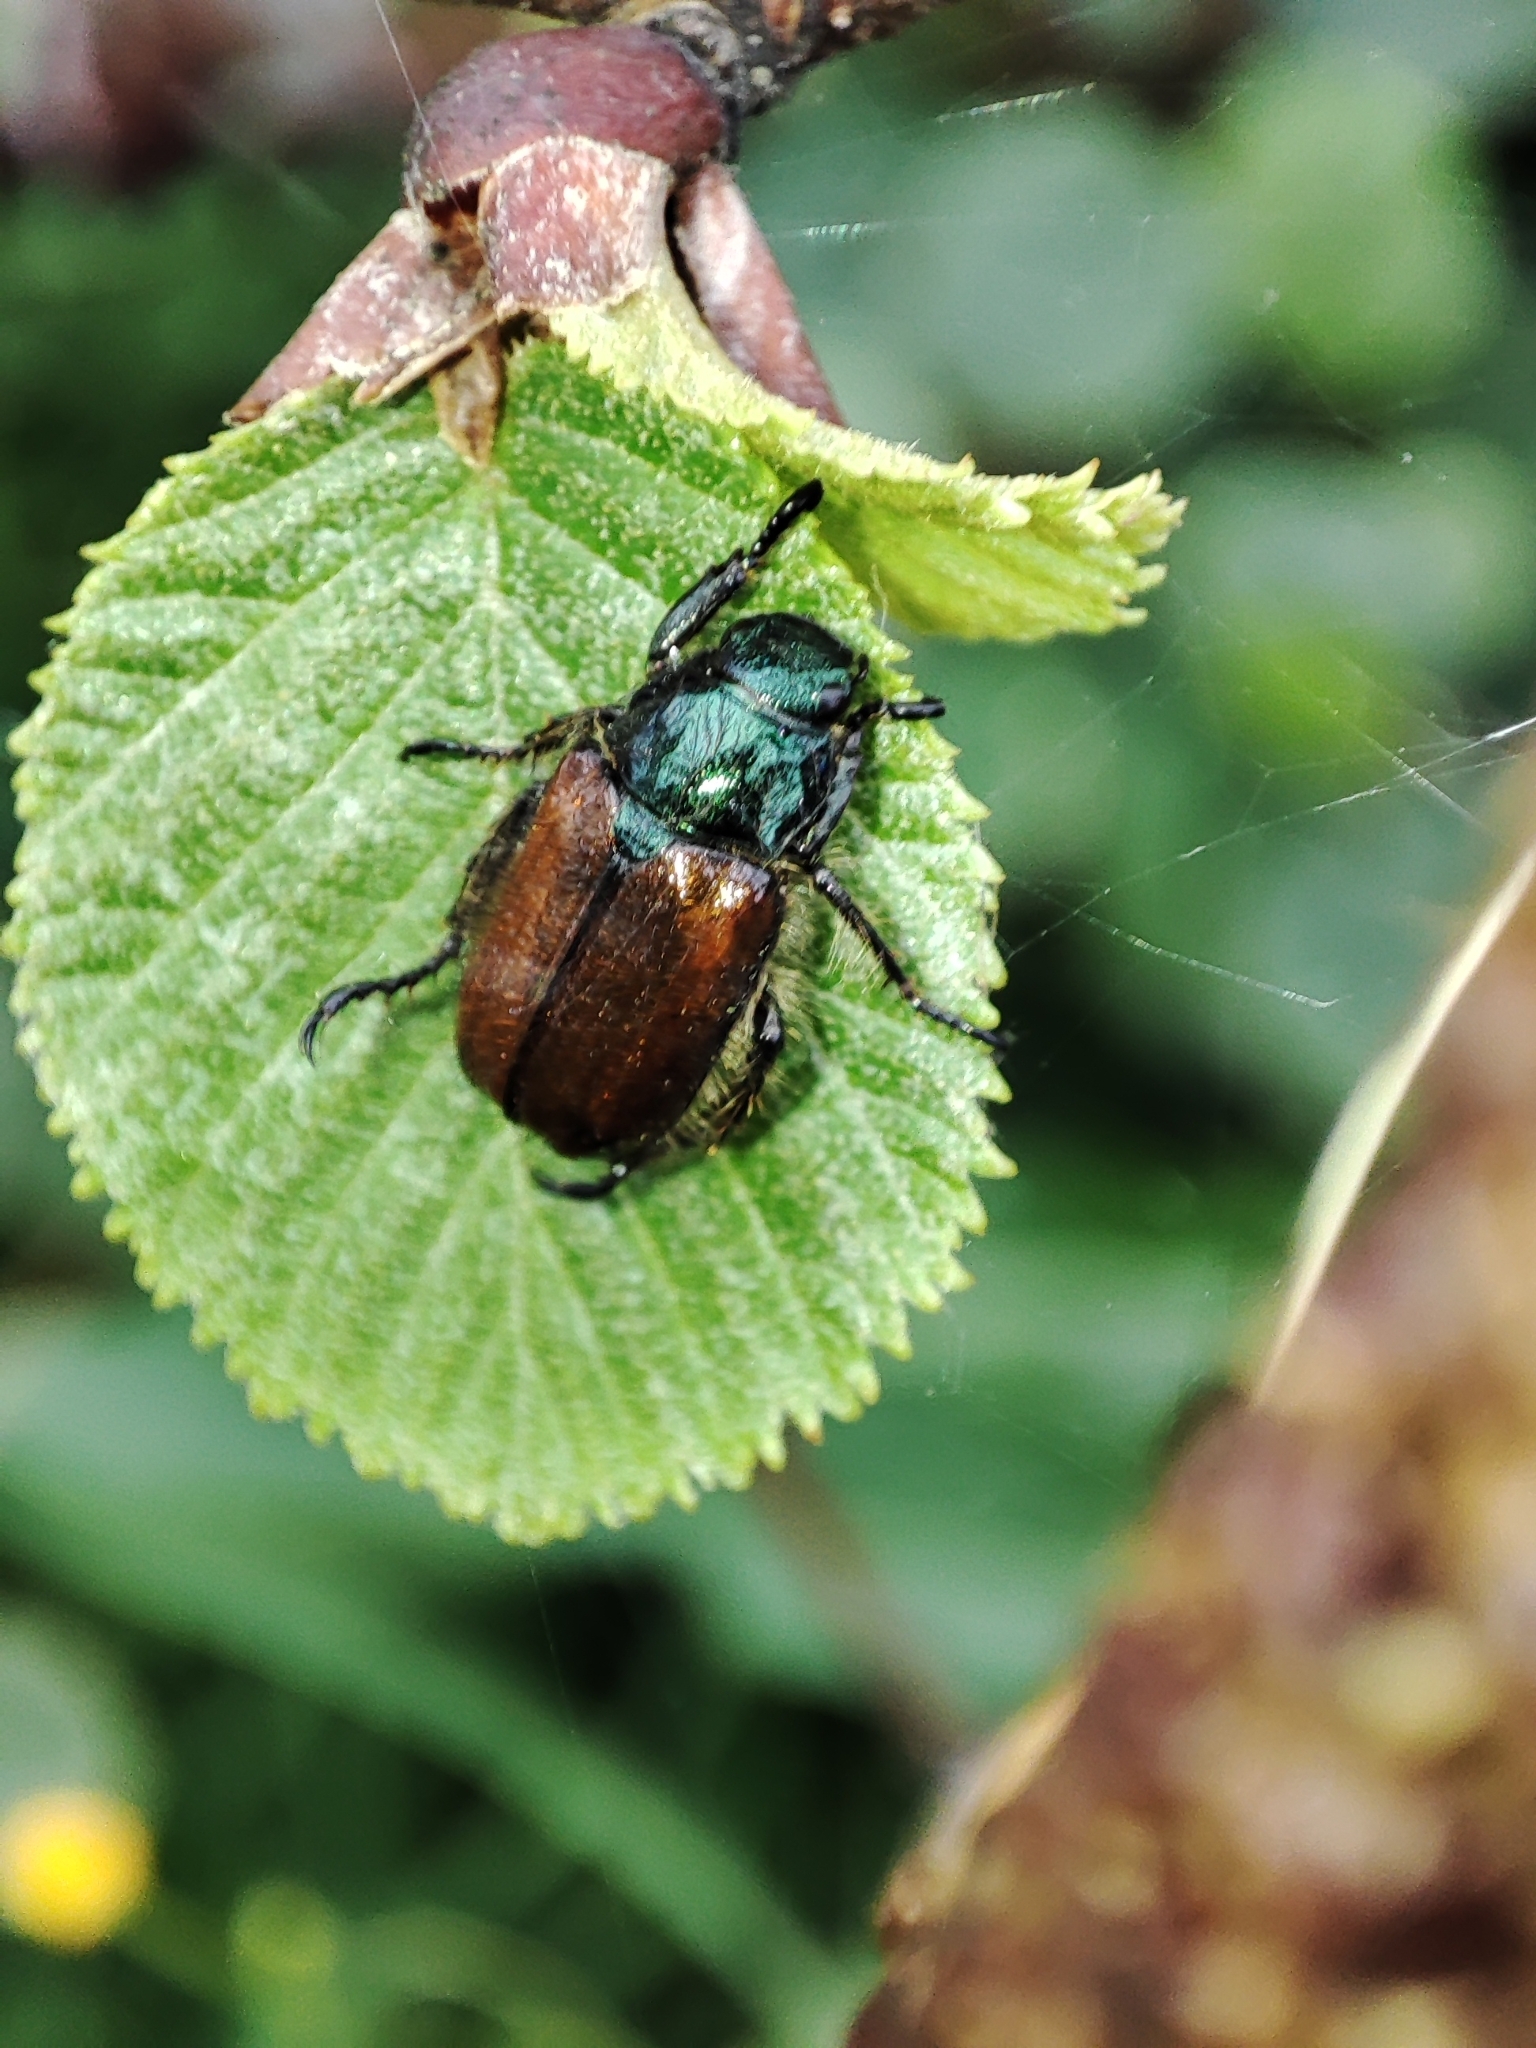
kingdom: Animalia
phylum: Arthropoda
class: Insecta
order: Coleoptera
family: Scarabaeidae
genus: Phyllopertha
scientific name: Phyllopertha horticola
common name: Garden chafer
